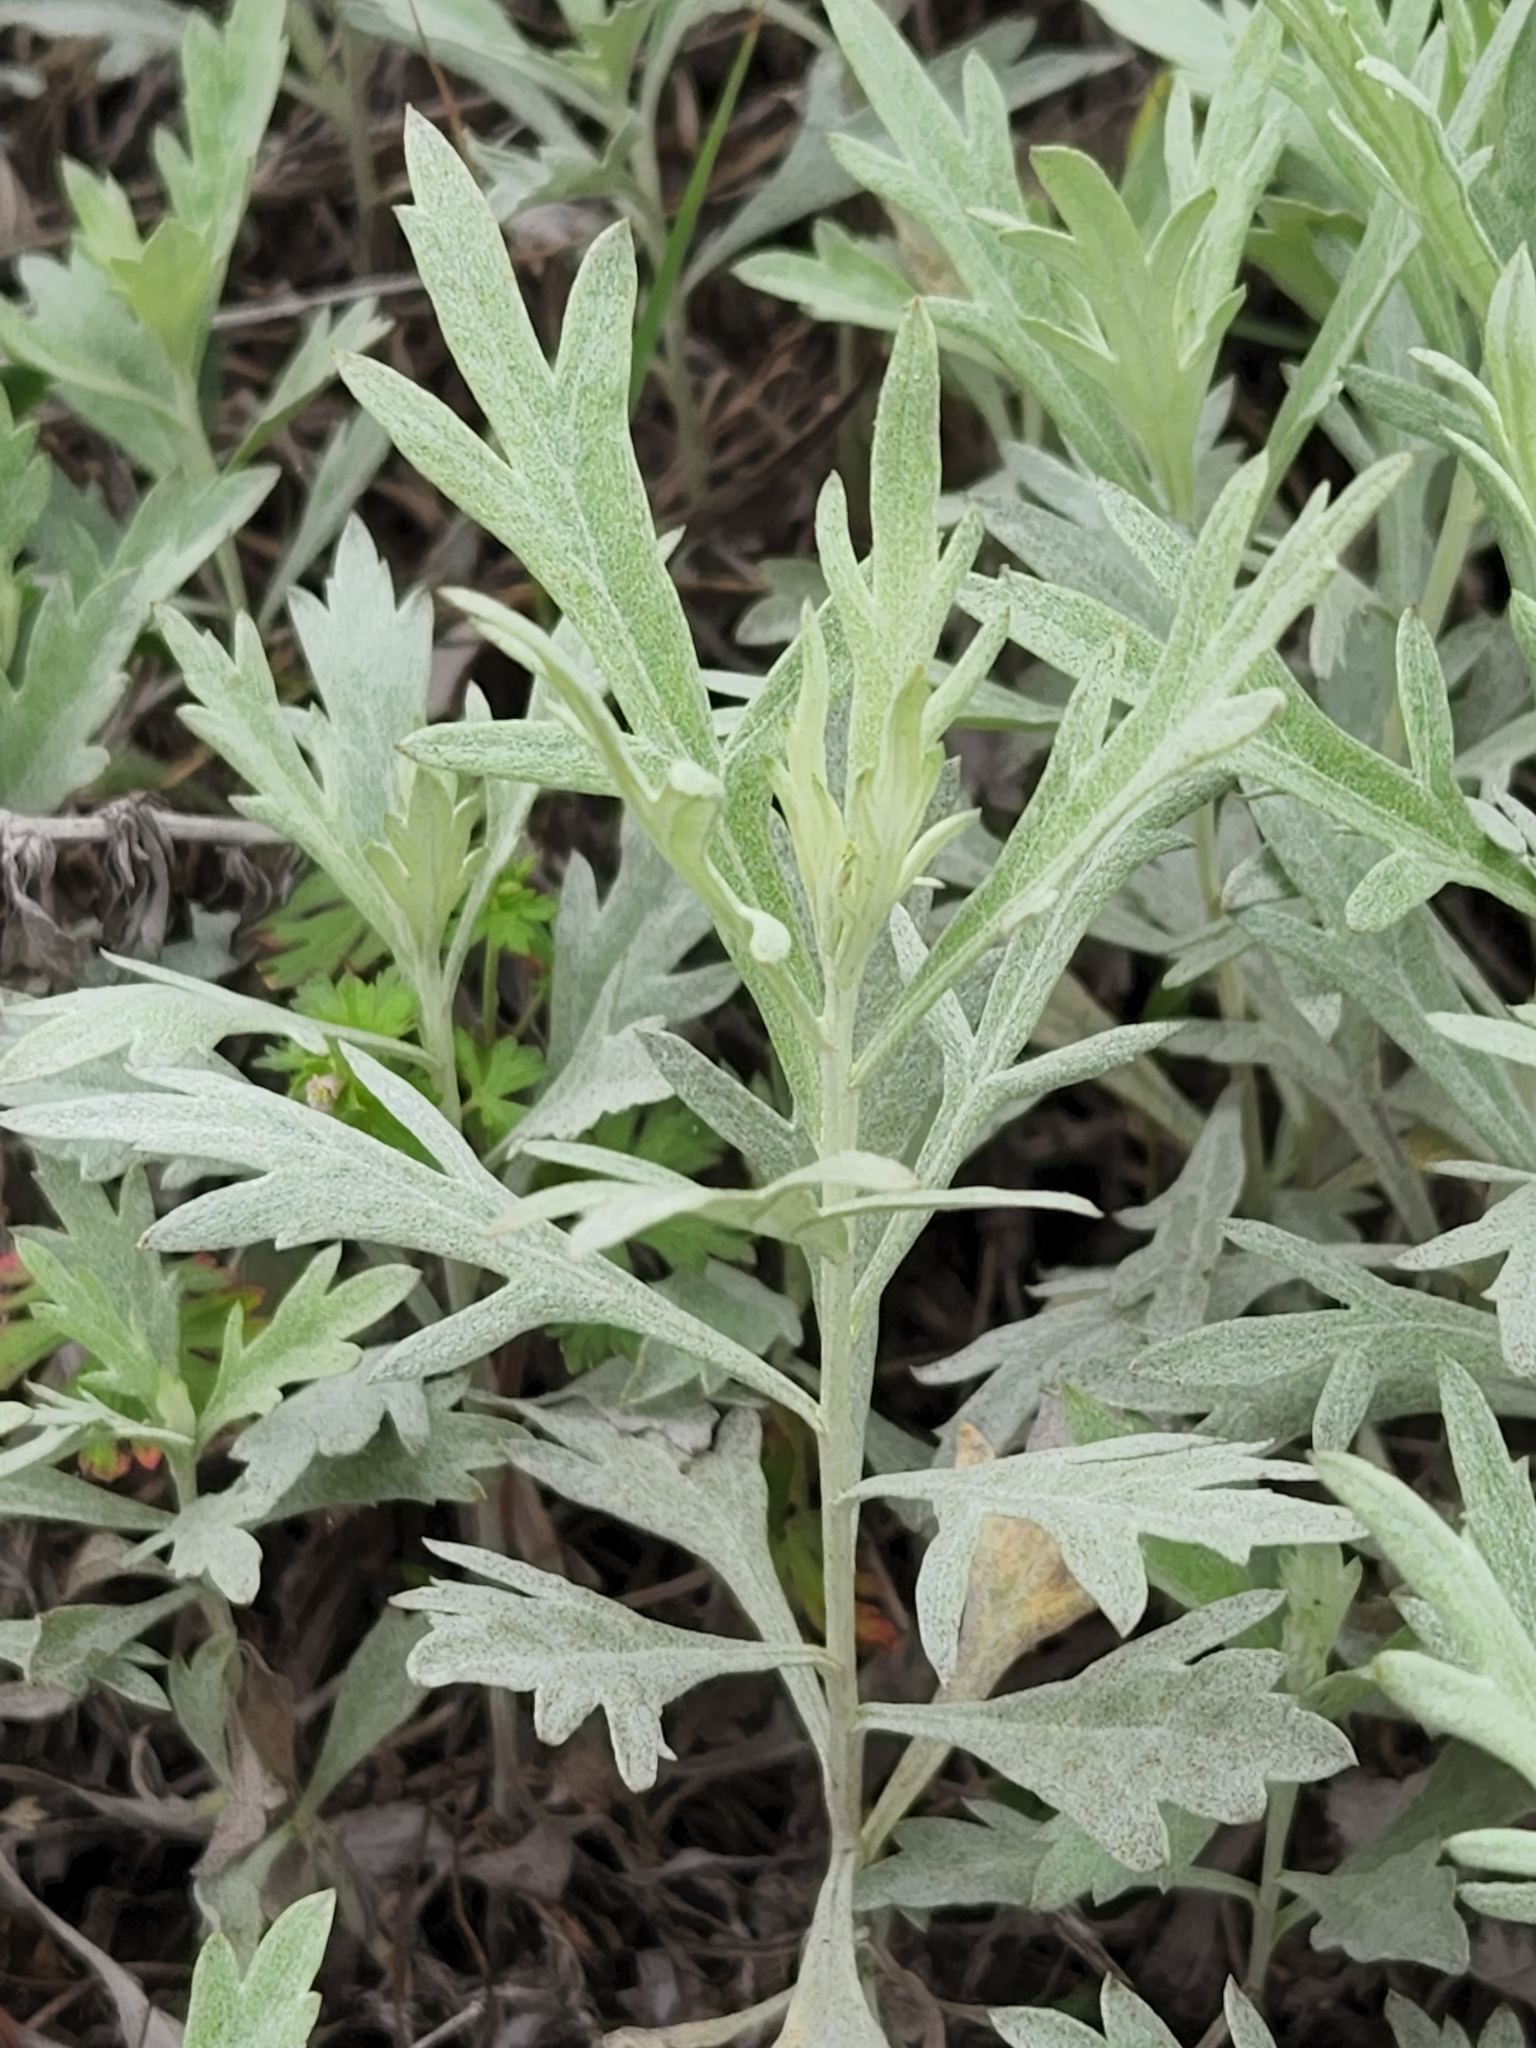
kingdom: Plantae
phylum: Tracheophyta
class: Magnoliopsida
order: Asterales
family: Asteraceae
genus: Artemisia
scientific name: Artemisia ludoviciana
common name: Western mugwort
